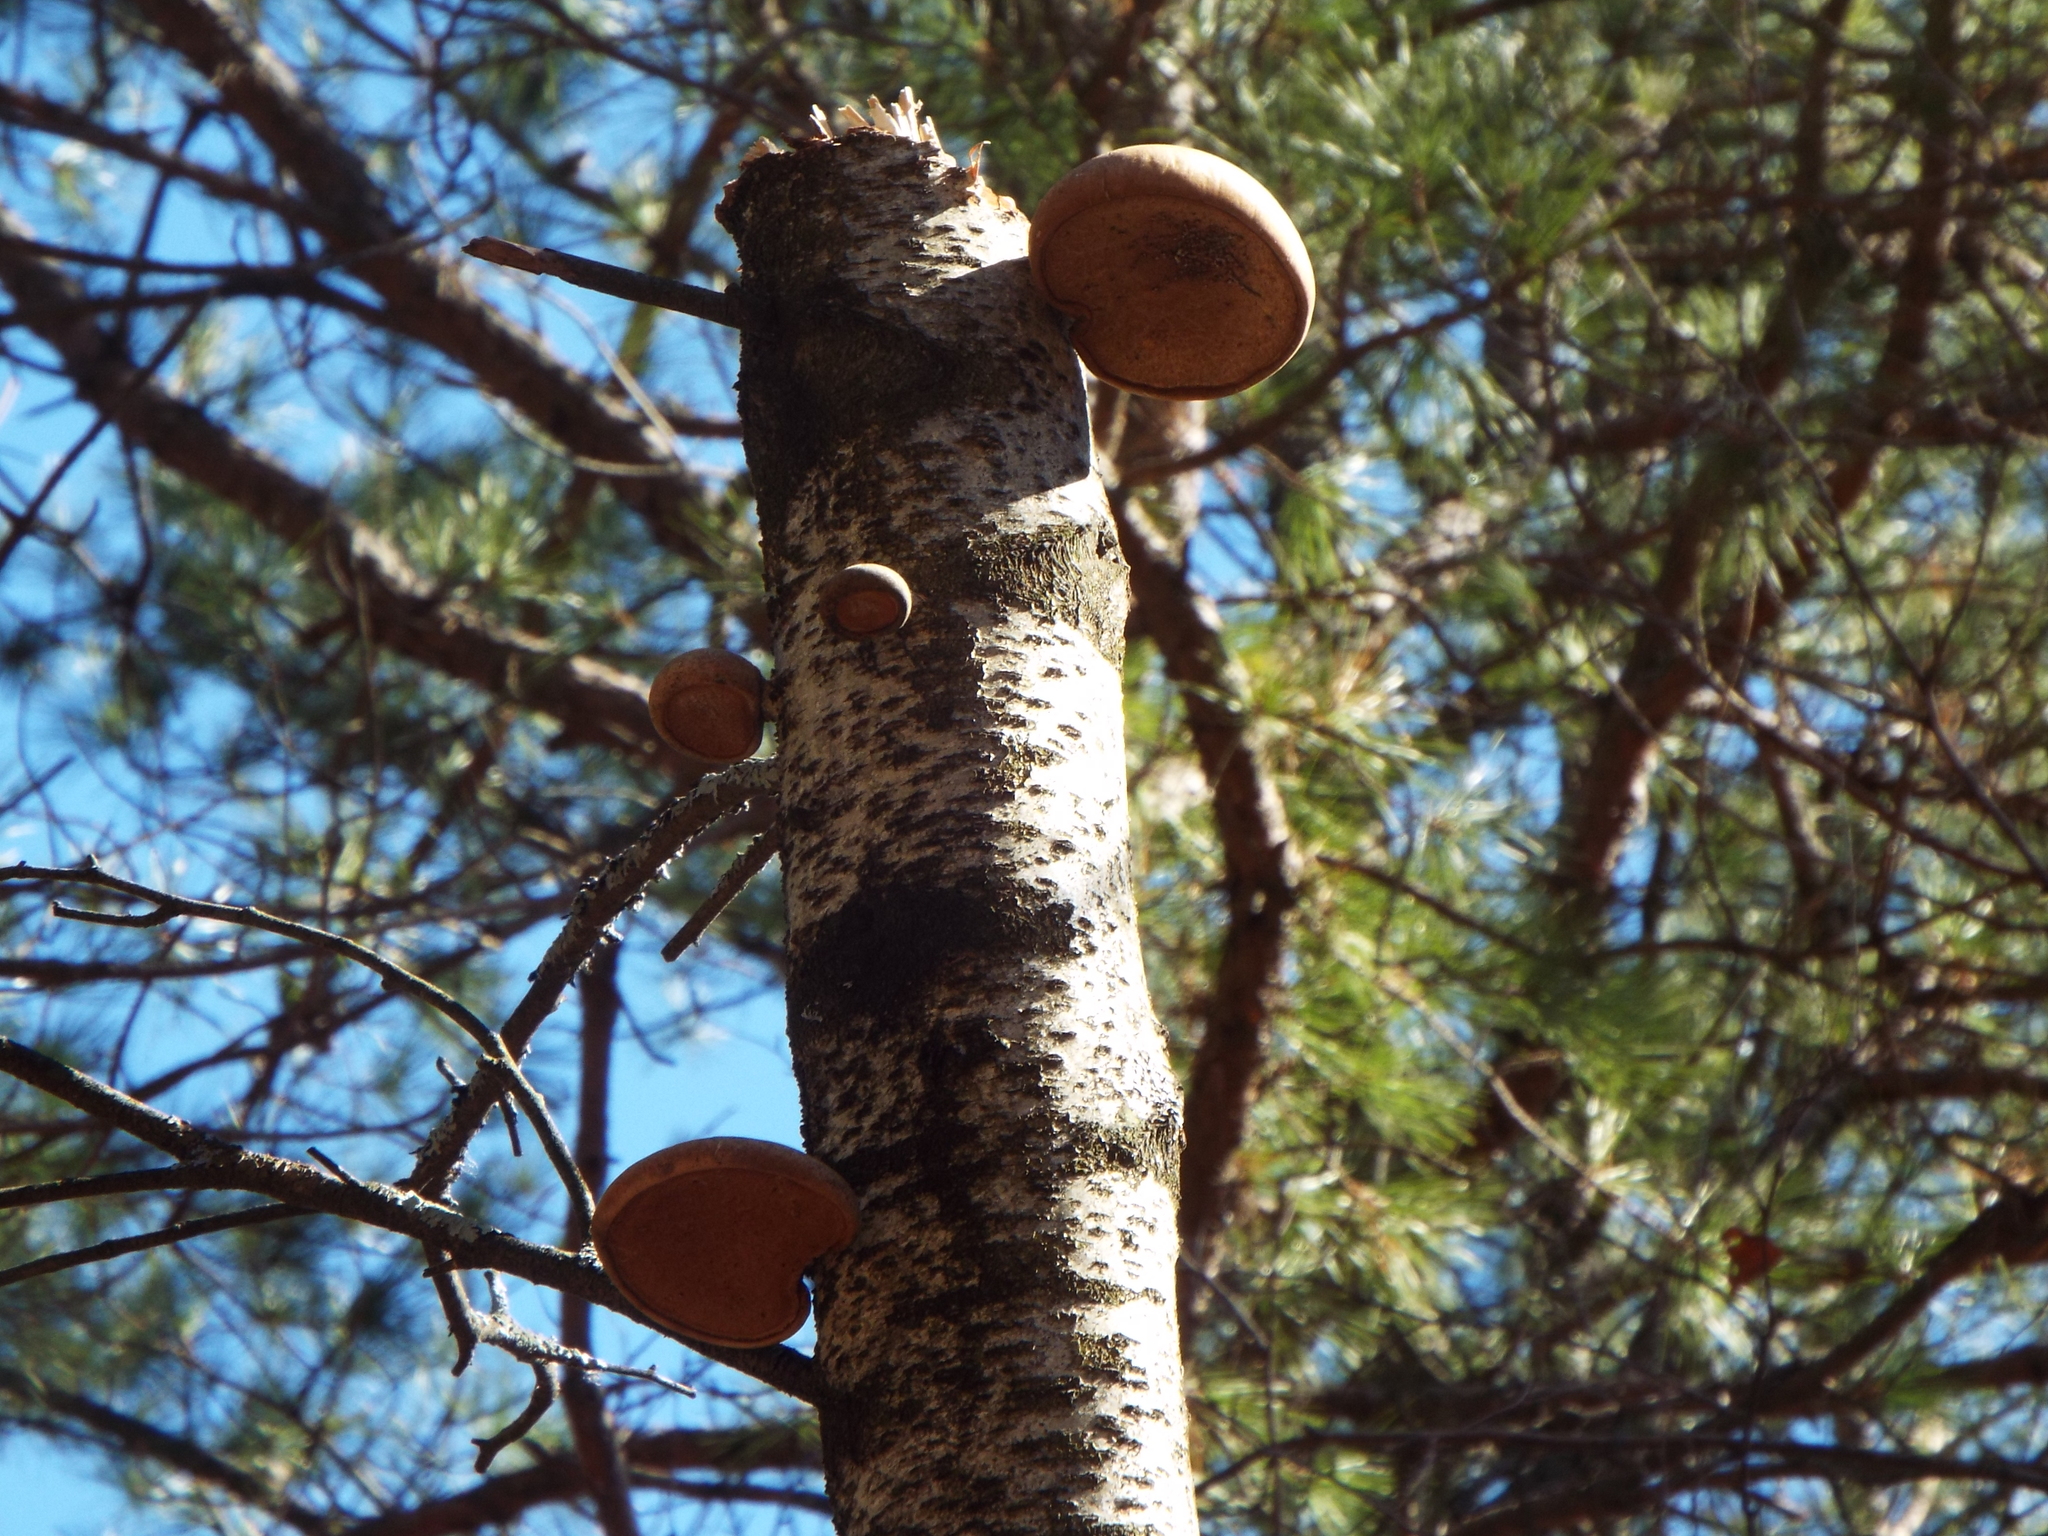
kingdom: Fungi
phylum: Basidiomycota
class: Agaricomycetes
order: Polyporales
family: Fomitopsidaceae
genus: Fomitopsis
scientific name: Fomitopsis betulina
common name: Birch polypore
